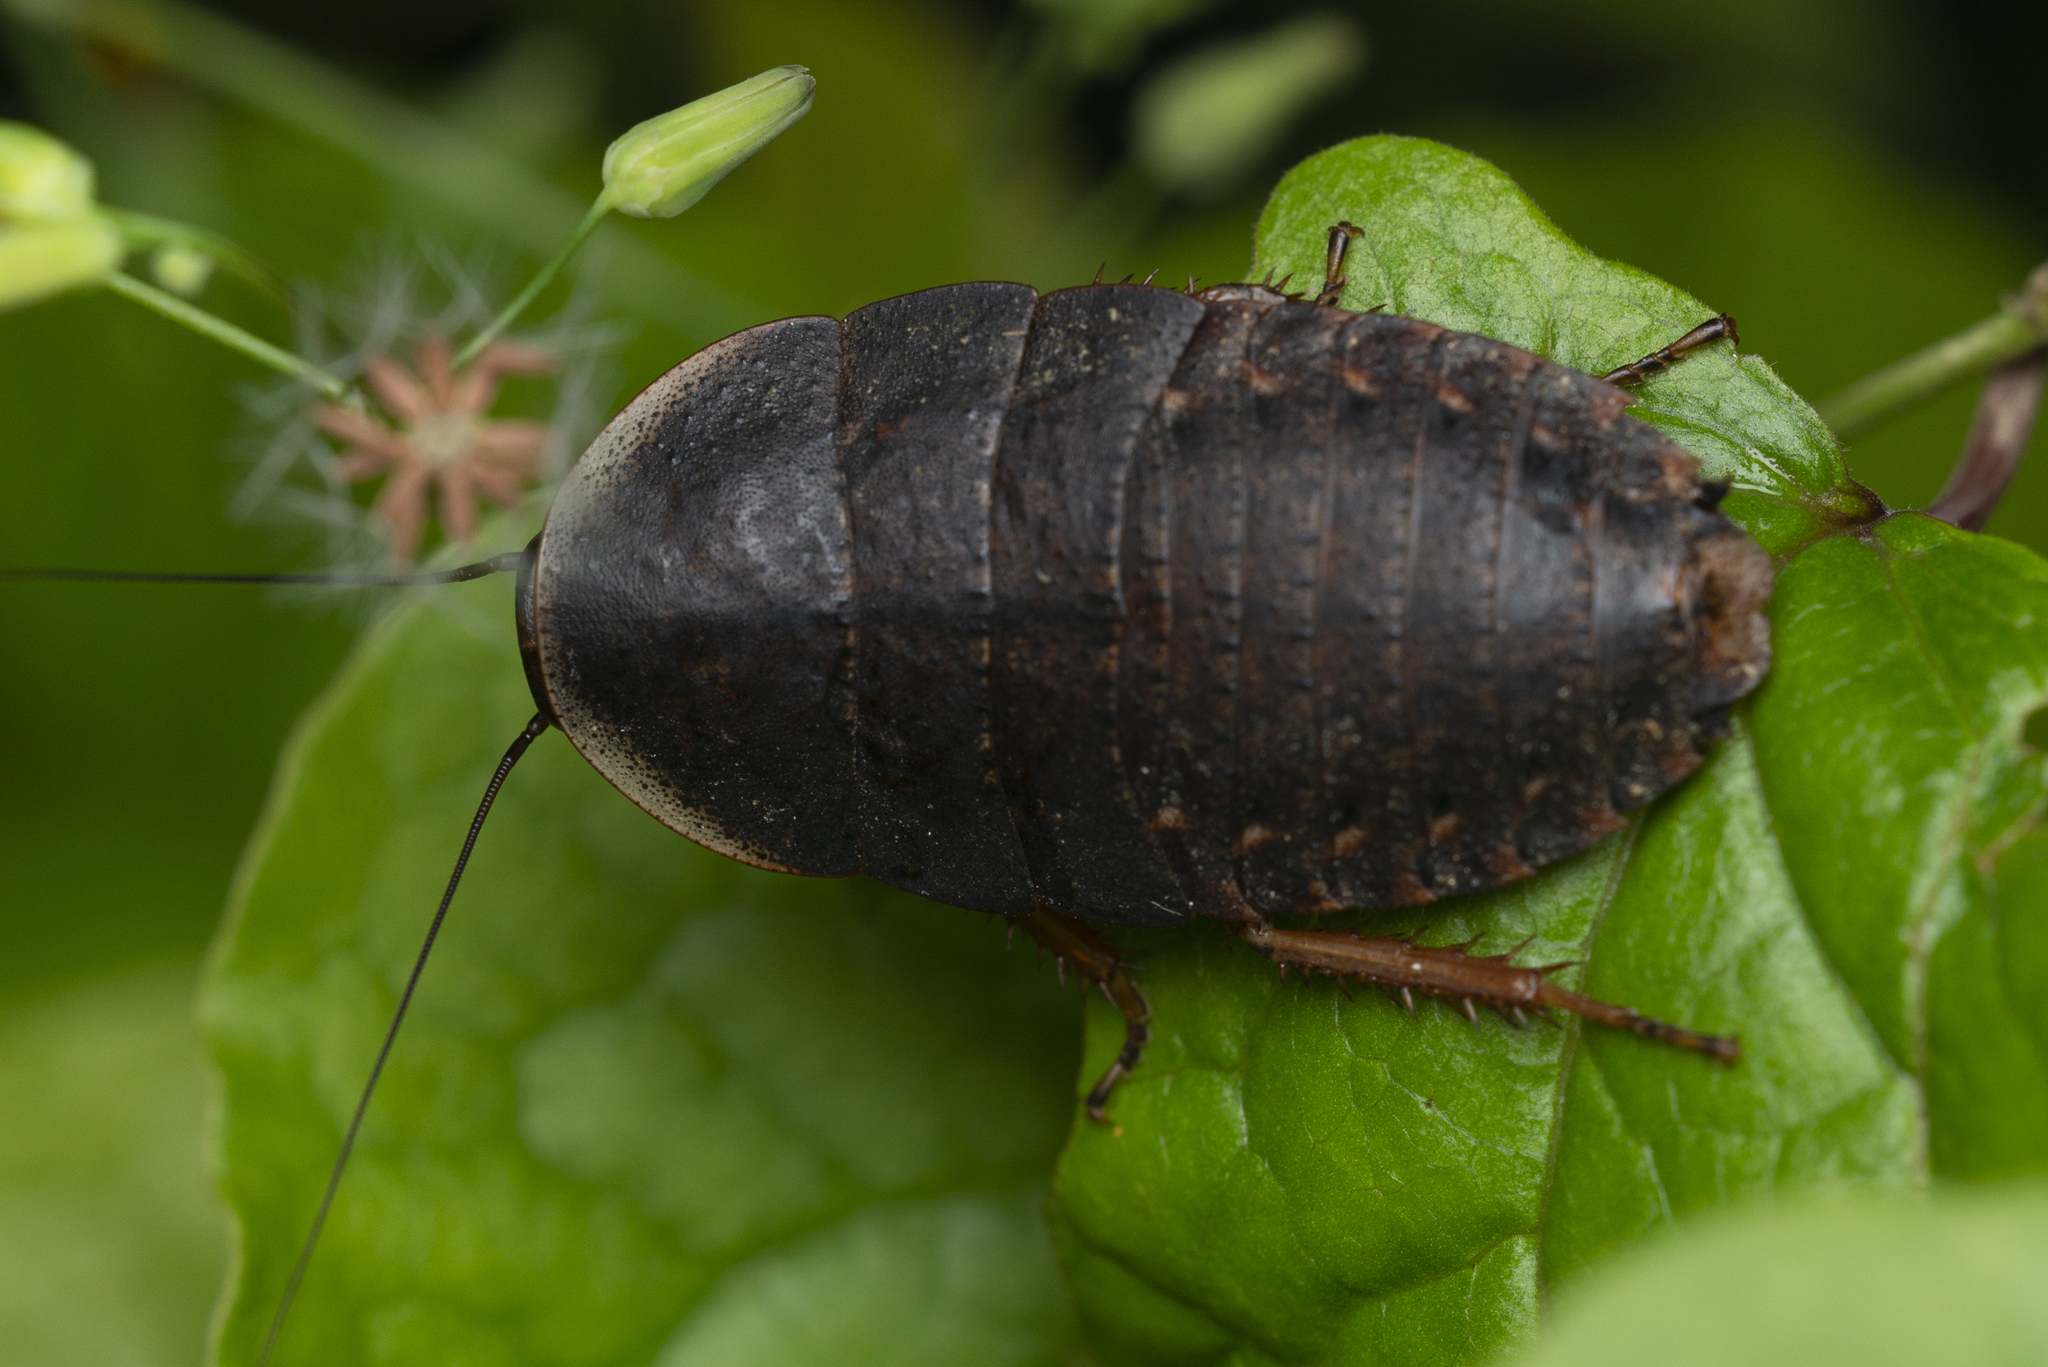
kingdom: Animalia
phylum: Arthropoda
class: Insecta
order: Blattodea
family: Blaberidae
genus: Opisthoplatia
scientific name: Opisthoplatia orientalis
